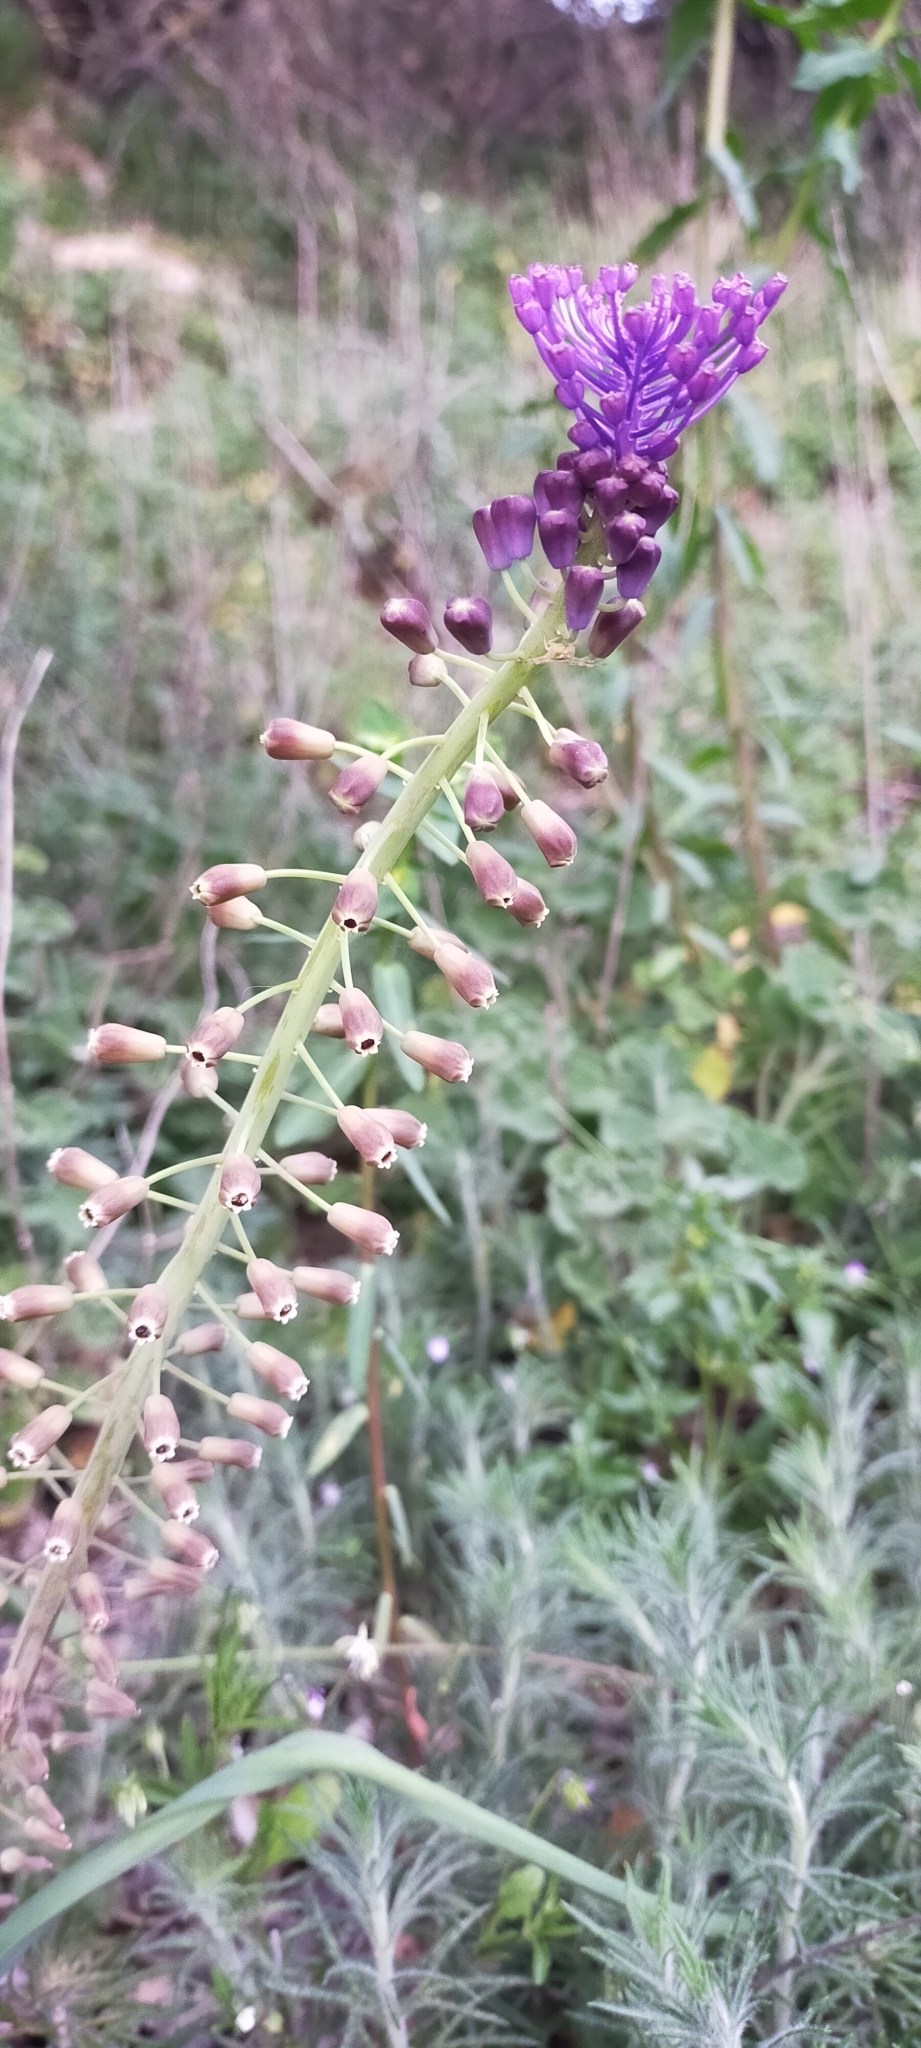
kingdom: Plantae
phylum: Tracheophyta
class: Liliopsida
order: Asparagales
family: Asparagaceae
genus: Muscari
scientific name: Muscari comosum
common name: Tassel hyacinth
